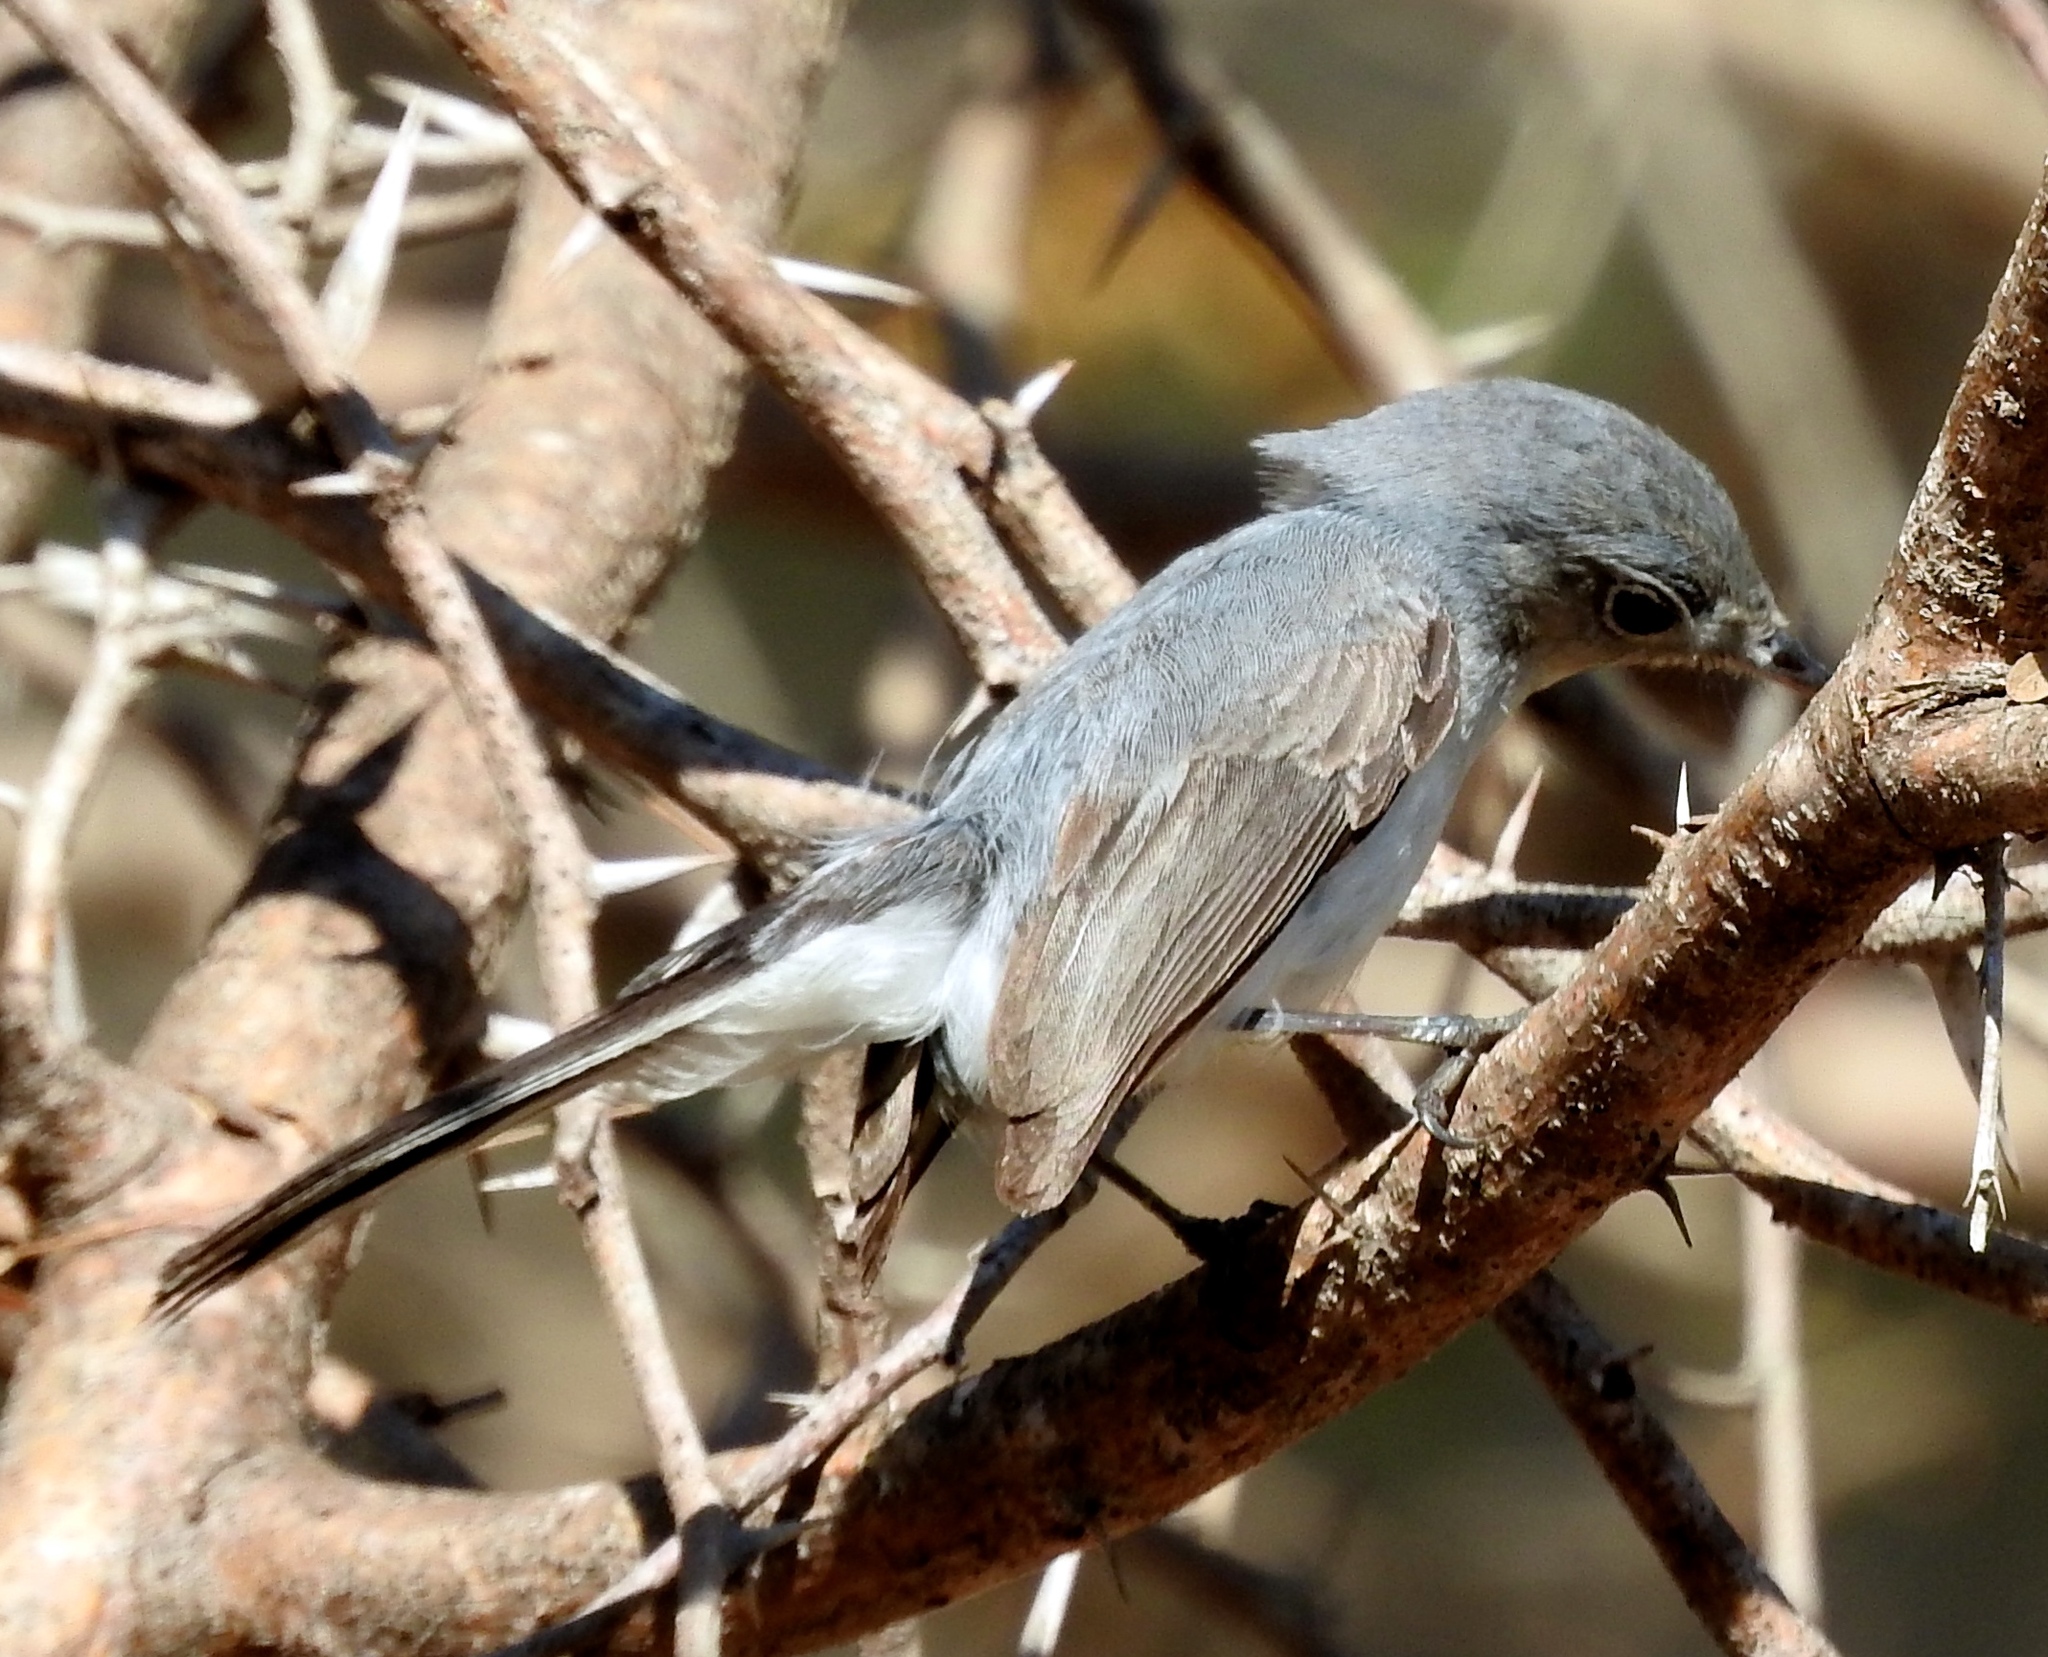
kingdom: Animalia
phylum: Chordata
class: Aves
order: Passeriformes
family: Polioptilidae
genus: Polioptila
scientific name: Polioptila
